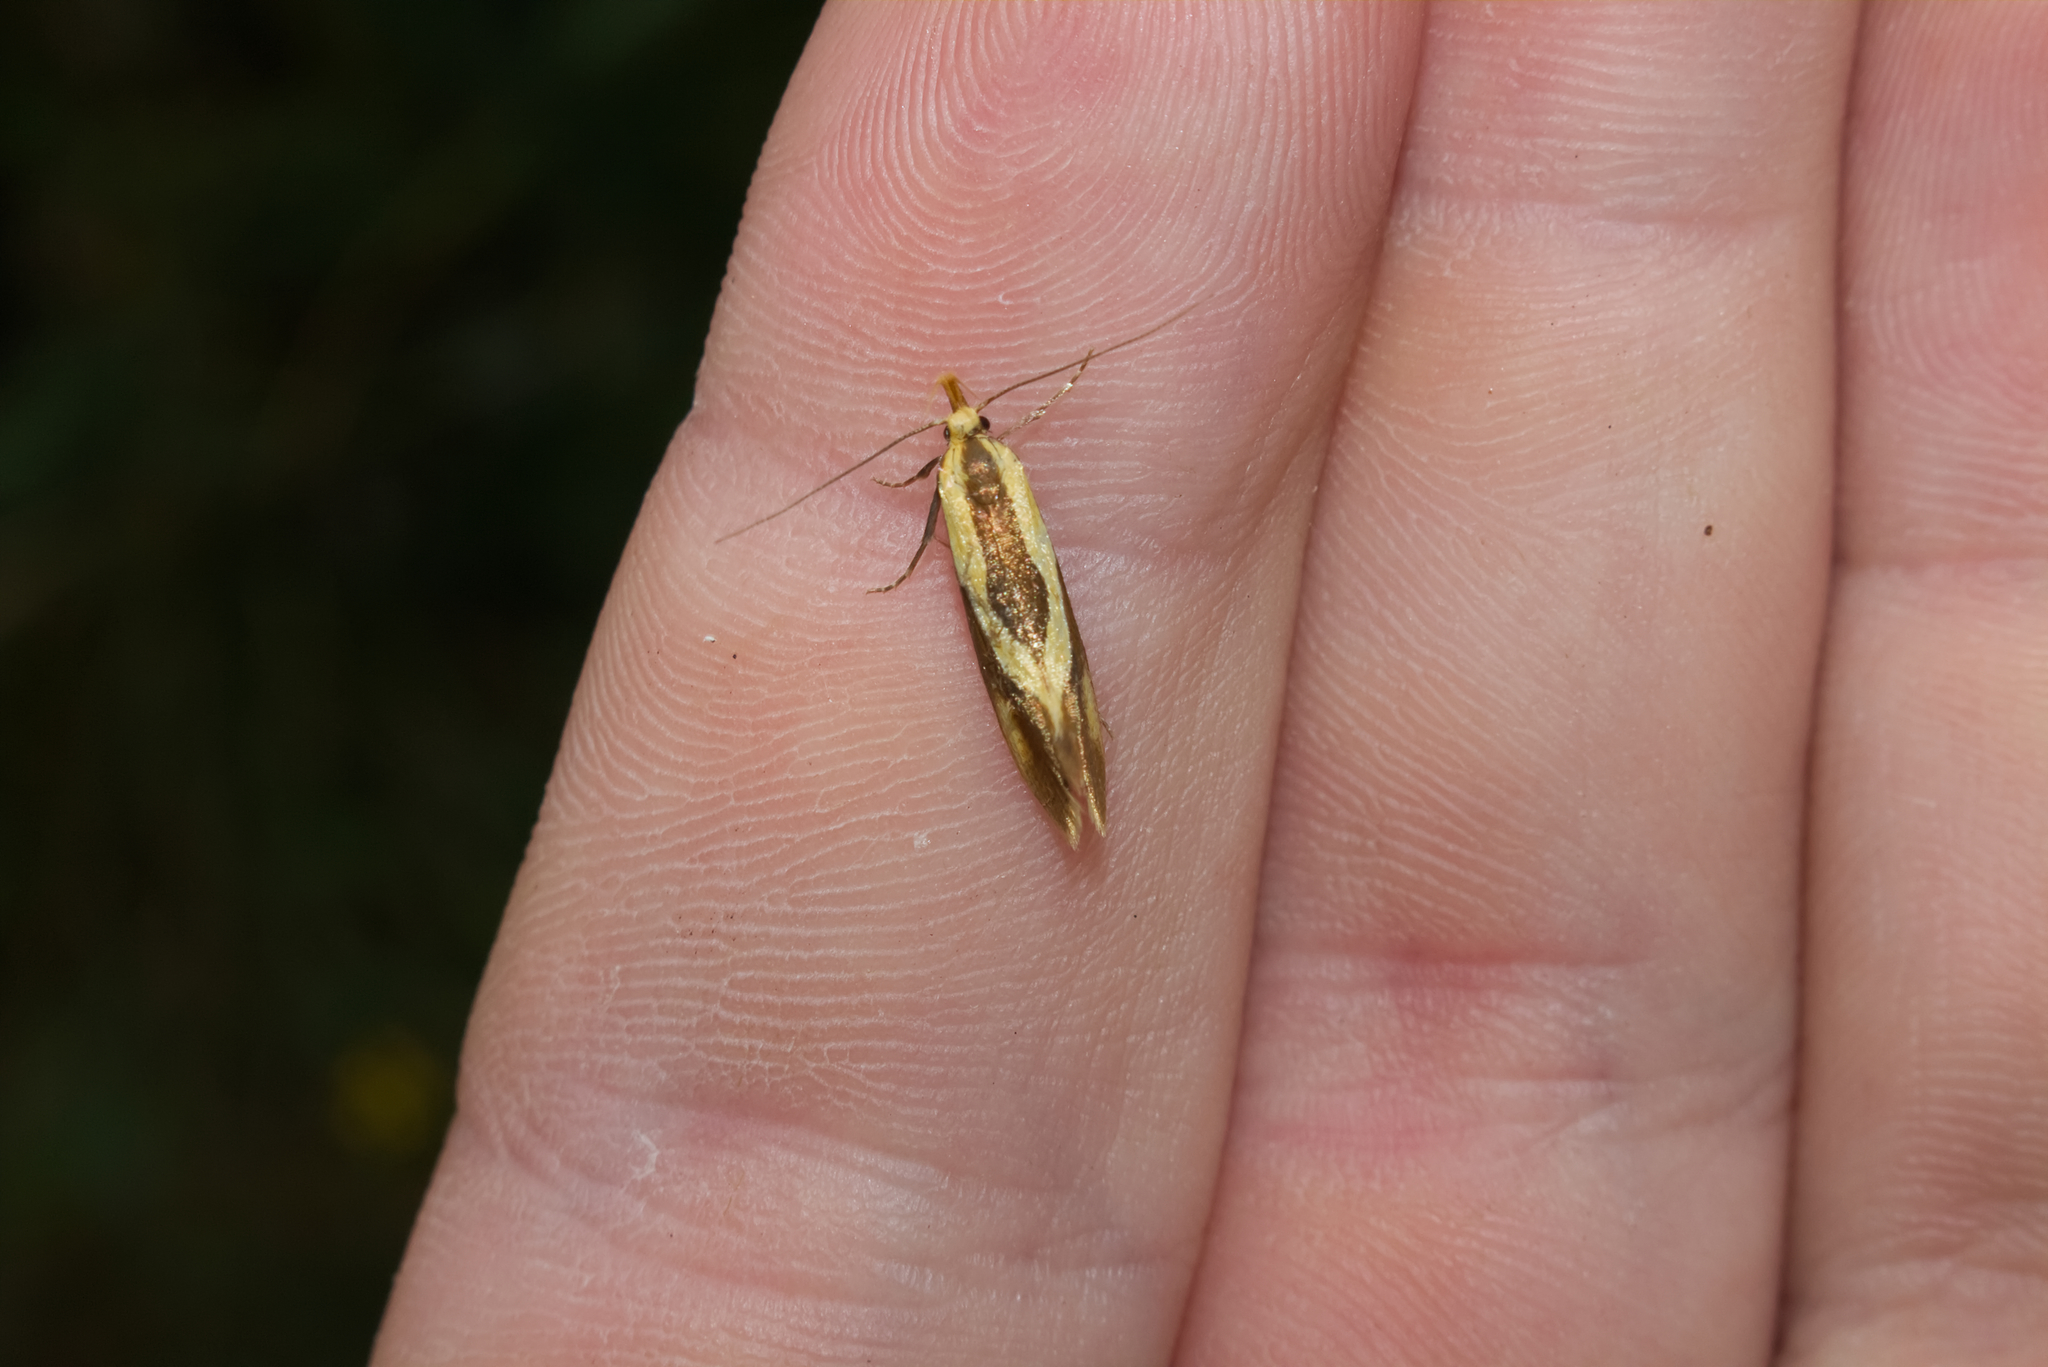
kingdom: Animalia
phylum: Arthropoda
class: Insecta
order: Lepidoptera
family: Oecophoridae
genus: Harpella
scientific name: Harpella forficella
